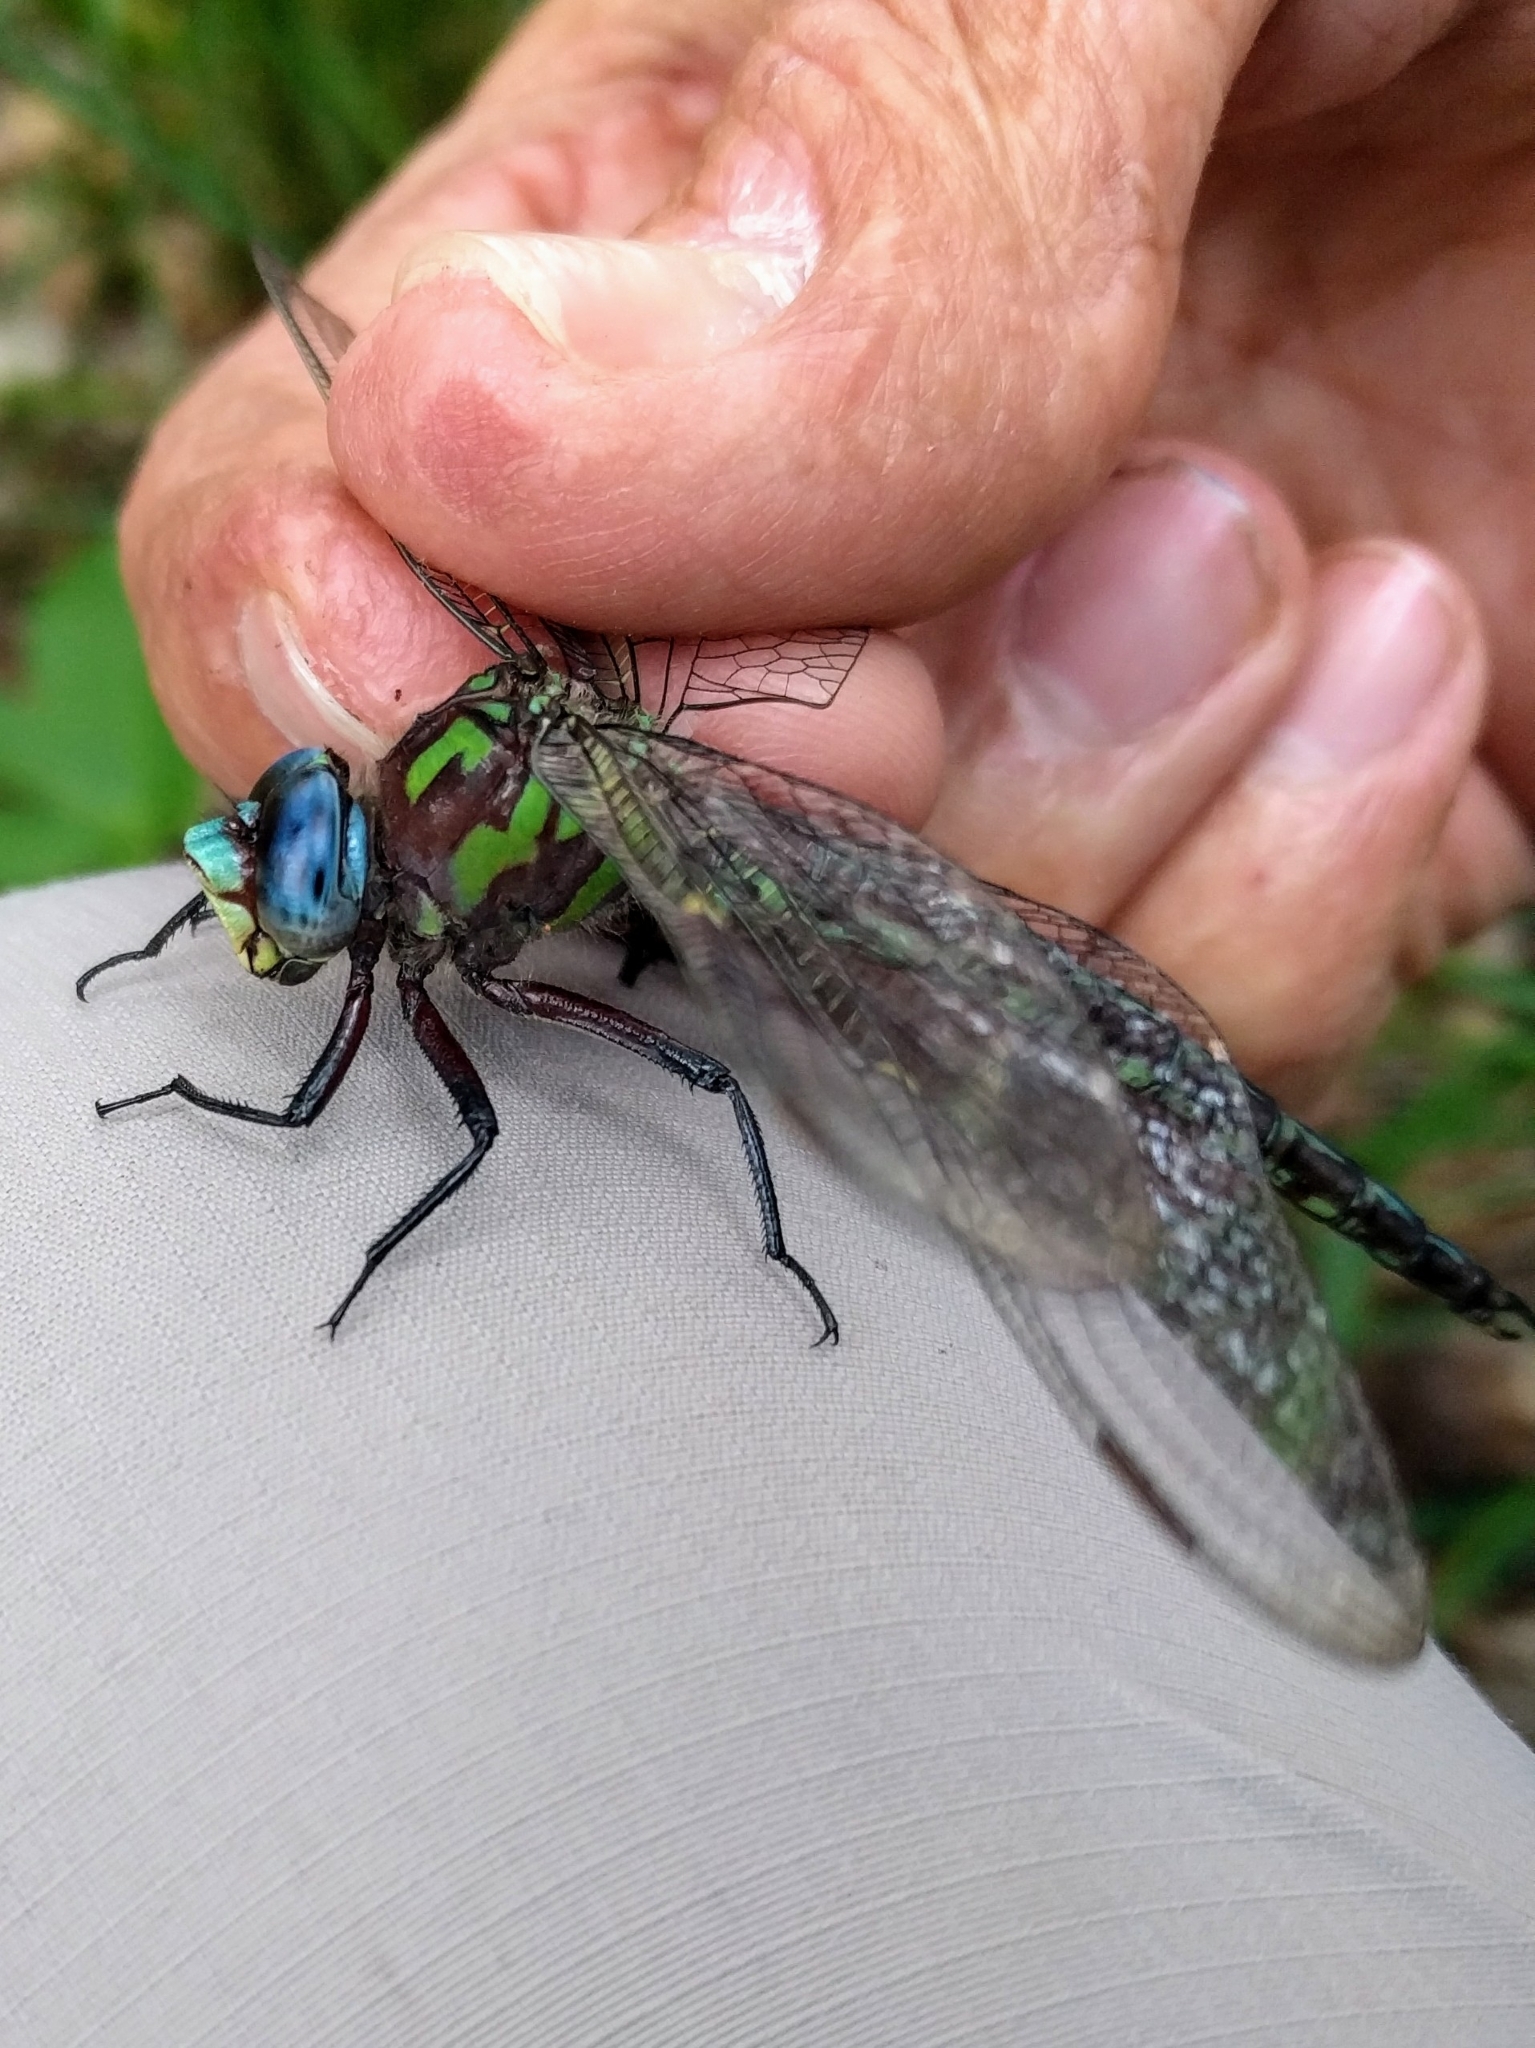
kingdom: Animalia
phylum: Arthropoda
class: Insecta
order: Odonata
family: Aeshnidae
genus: Nasiaeschna
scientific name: Nasiaeschna pentacantha
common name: Cyrano darner
